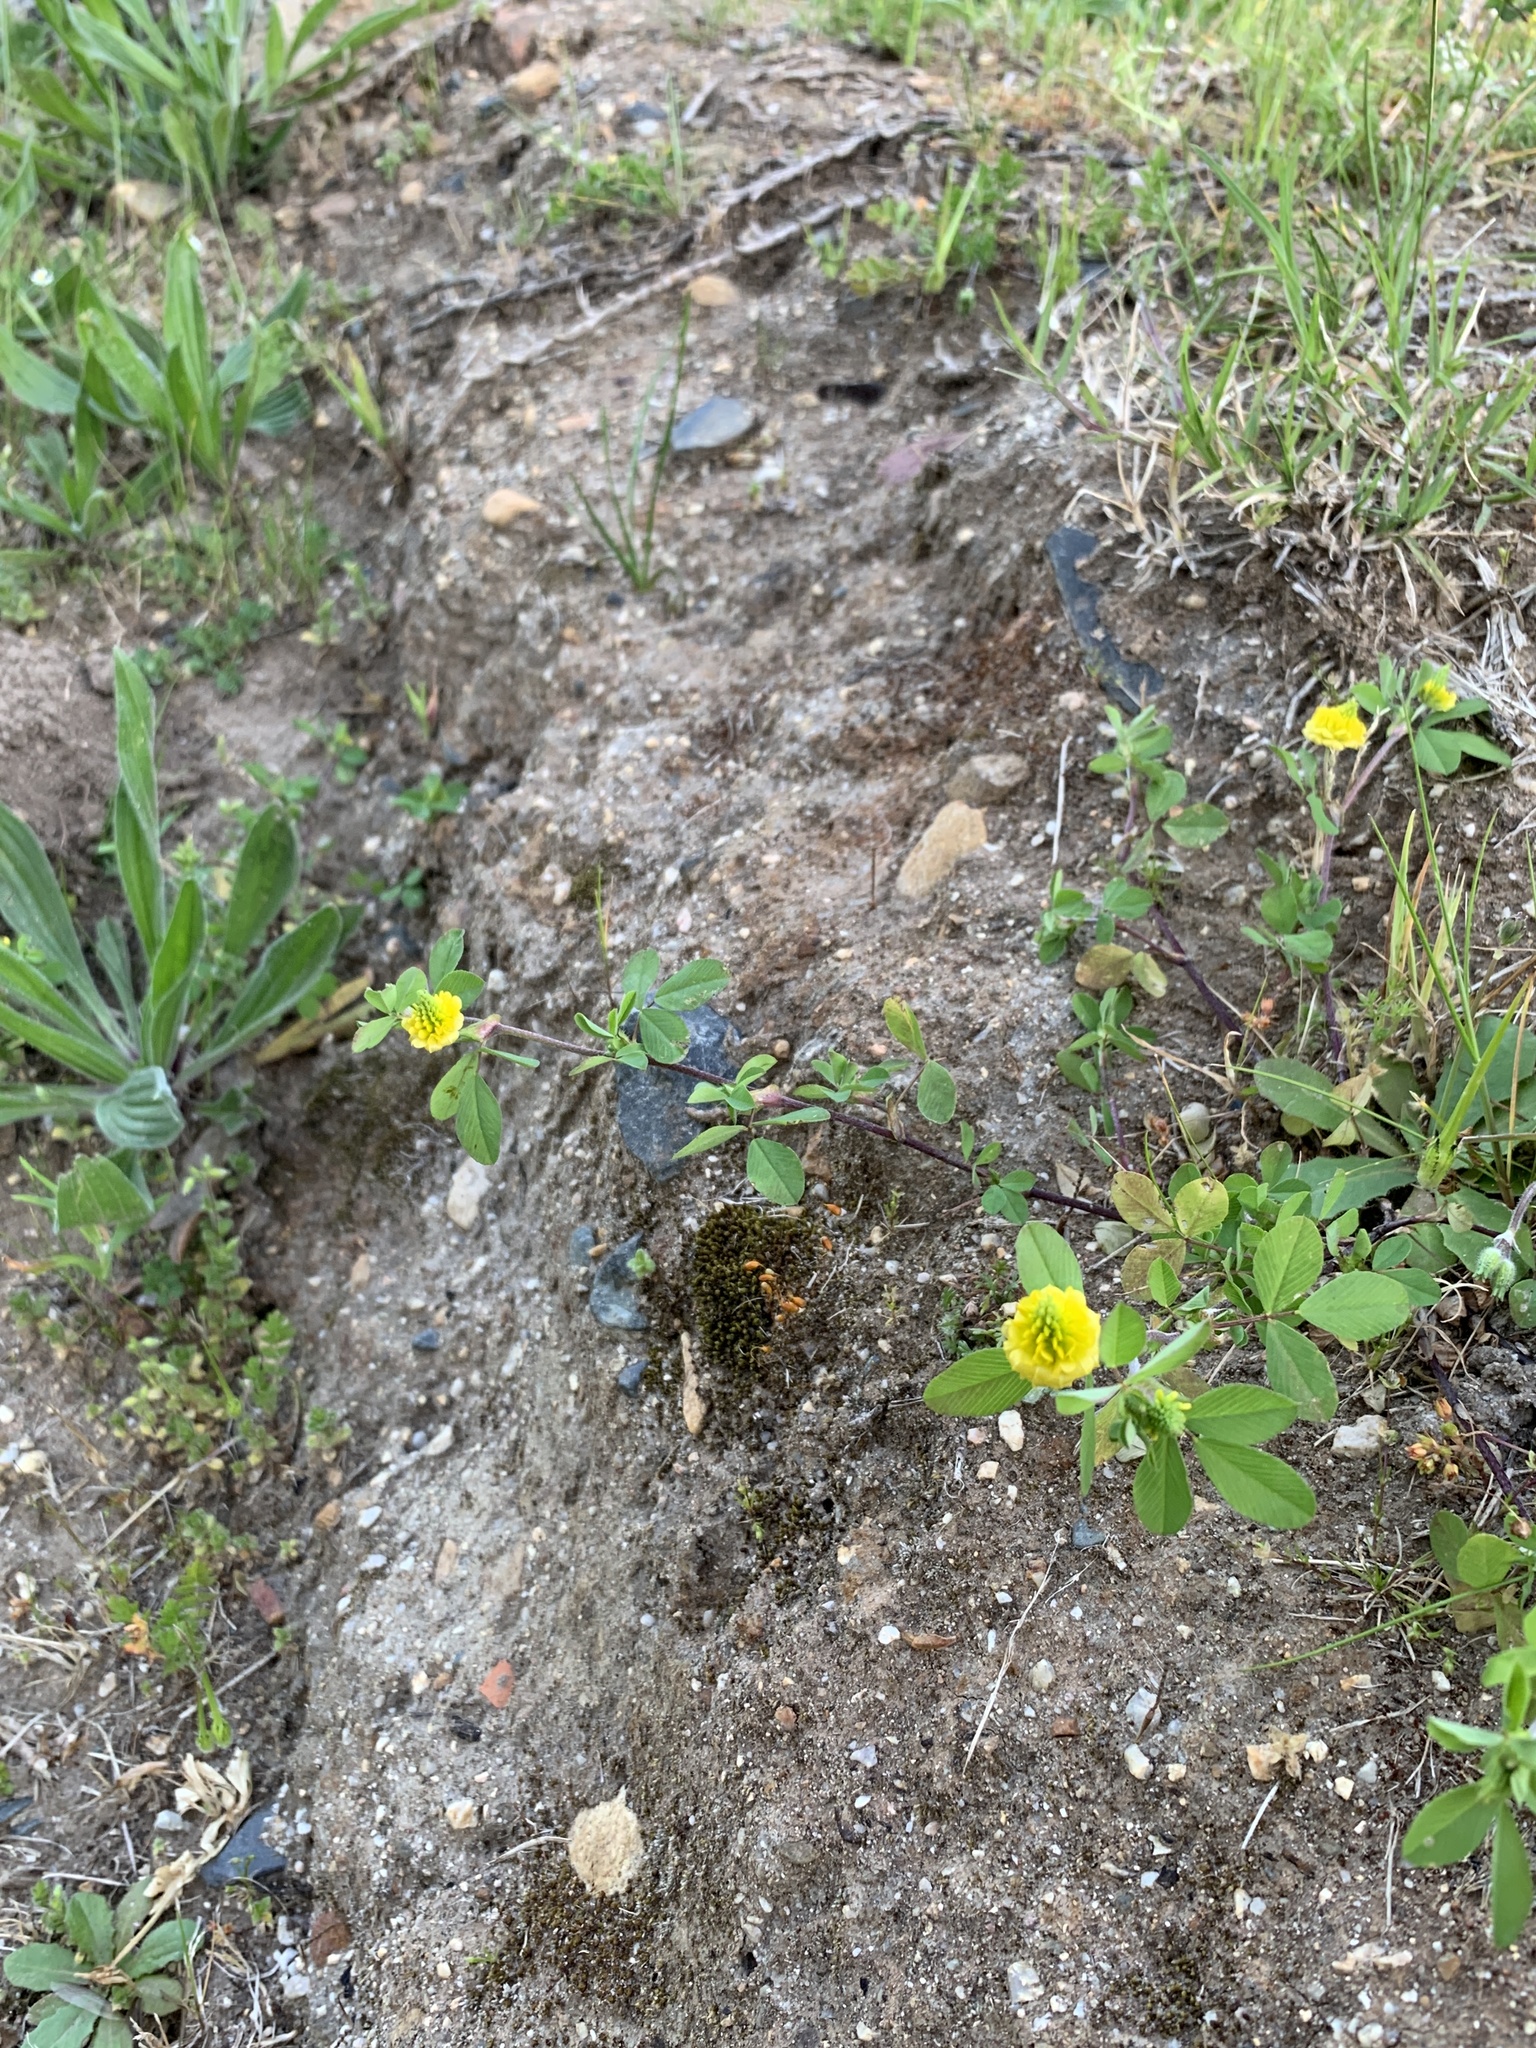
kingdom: Plantae
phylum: Tracheophyta
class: Magnoliopsida
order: Fabales
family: Fabaceae
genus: Trifolium
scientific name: Trifolium campestre
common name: Field clover
